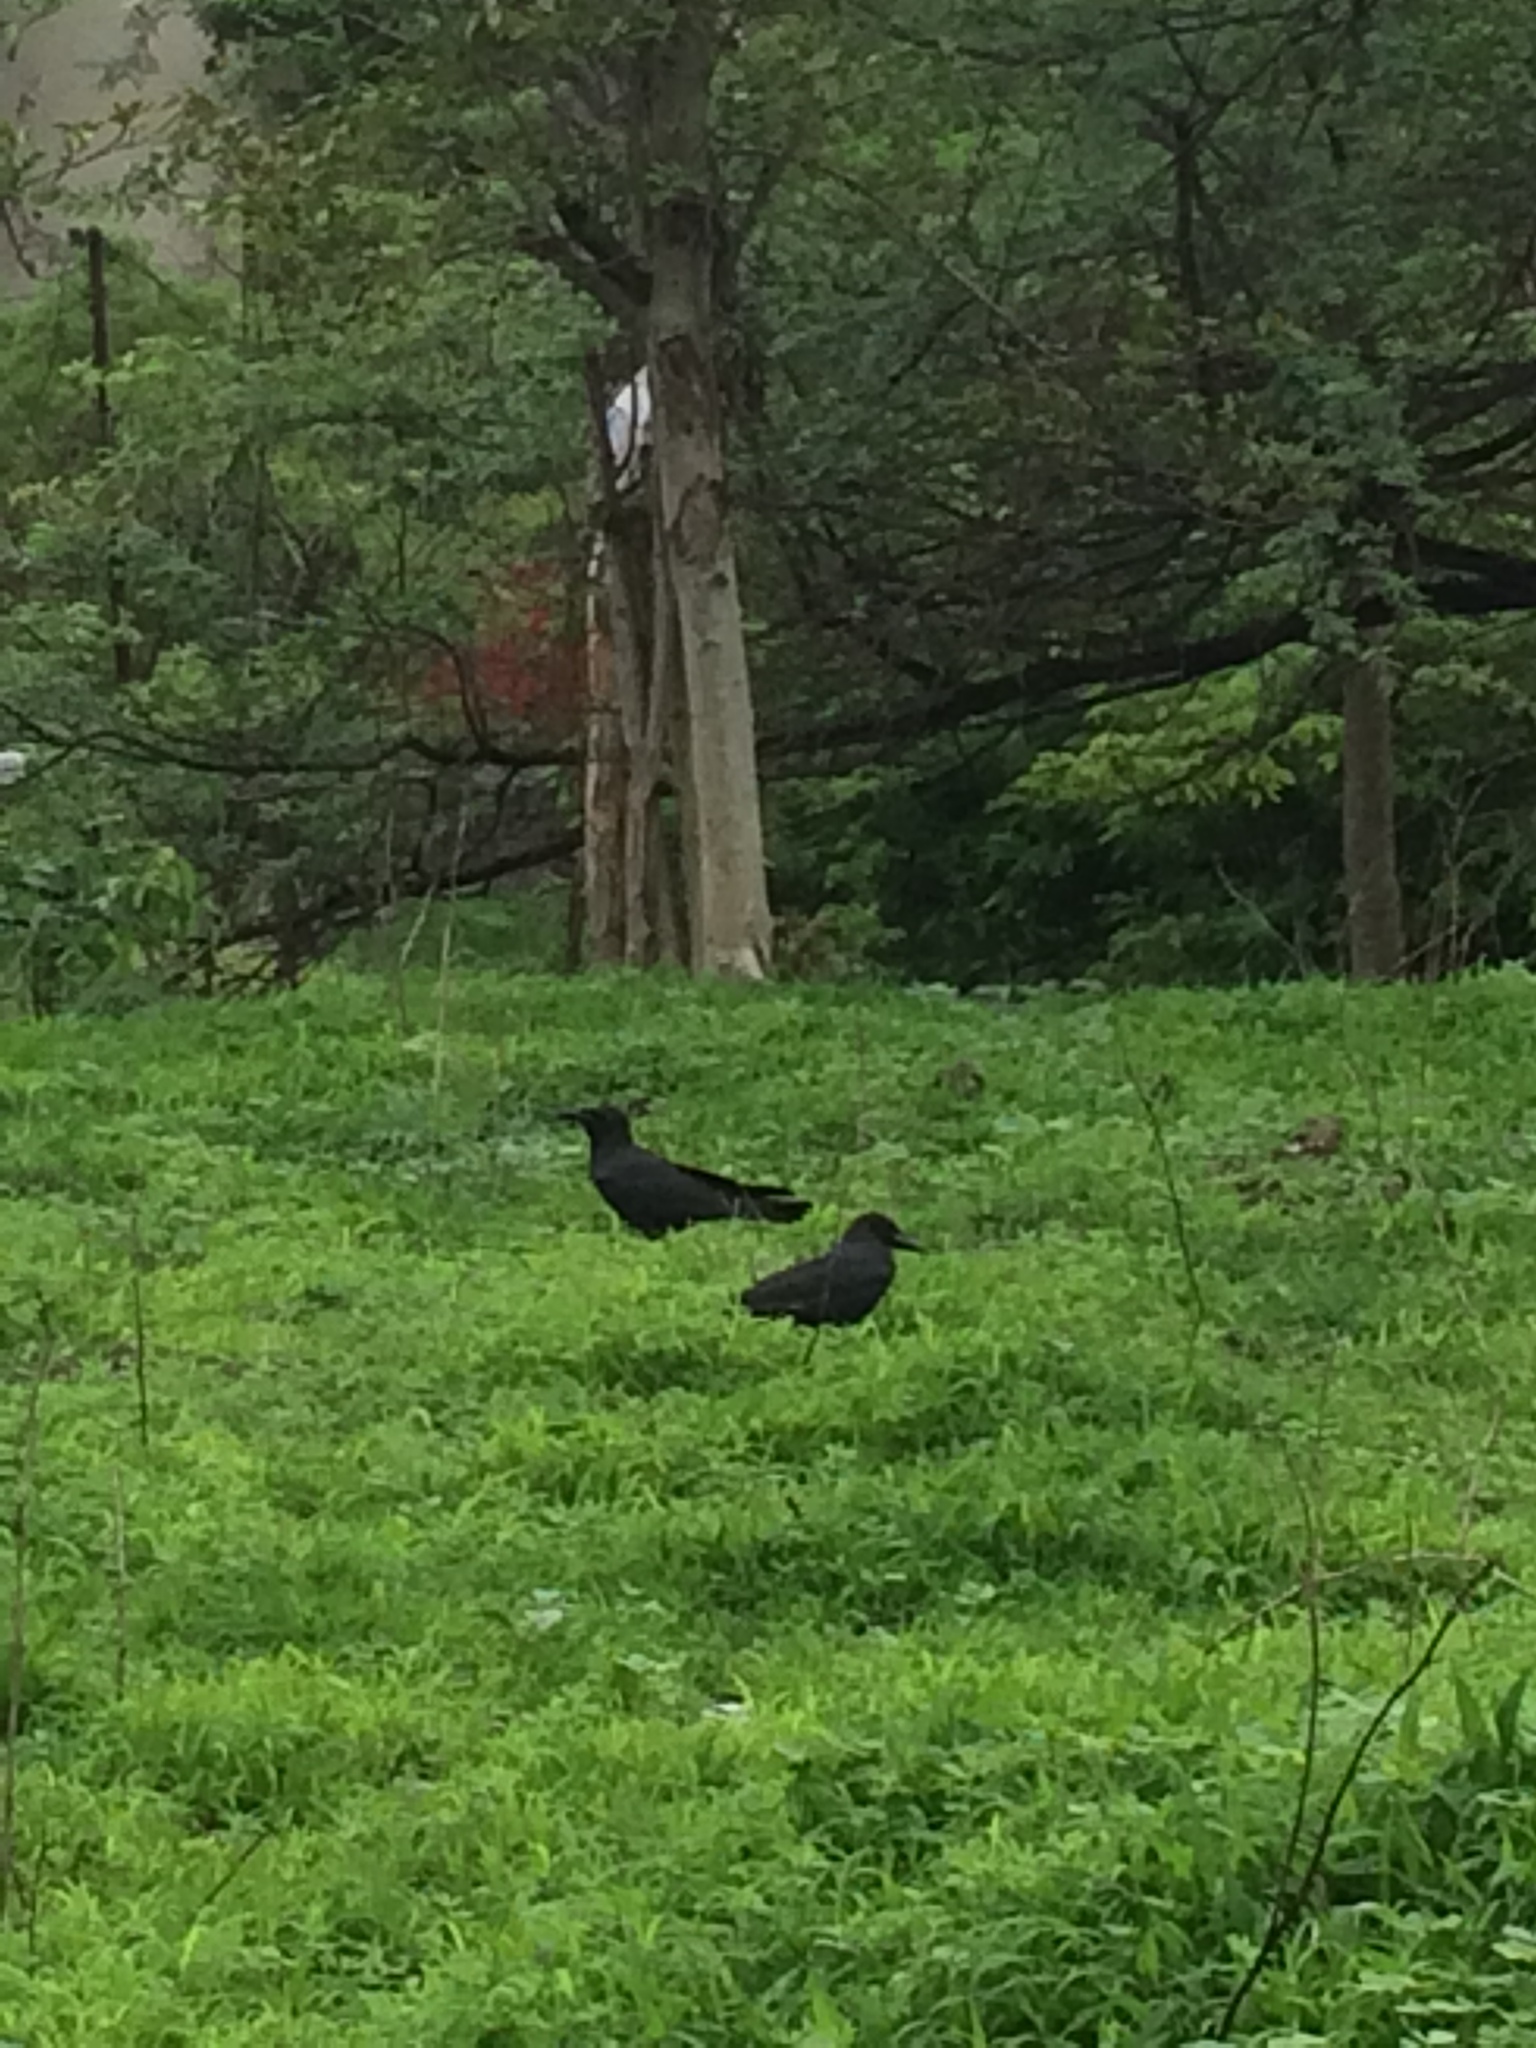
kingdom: Animalia
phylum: Chordata
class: Aves
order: Passeriformes
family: Corvidae
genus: Corvus
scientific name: Corvus macrorhynchos
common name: Large-billed crow
